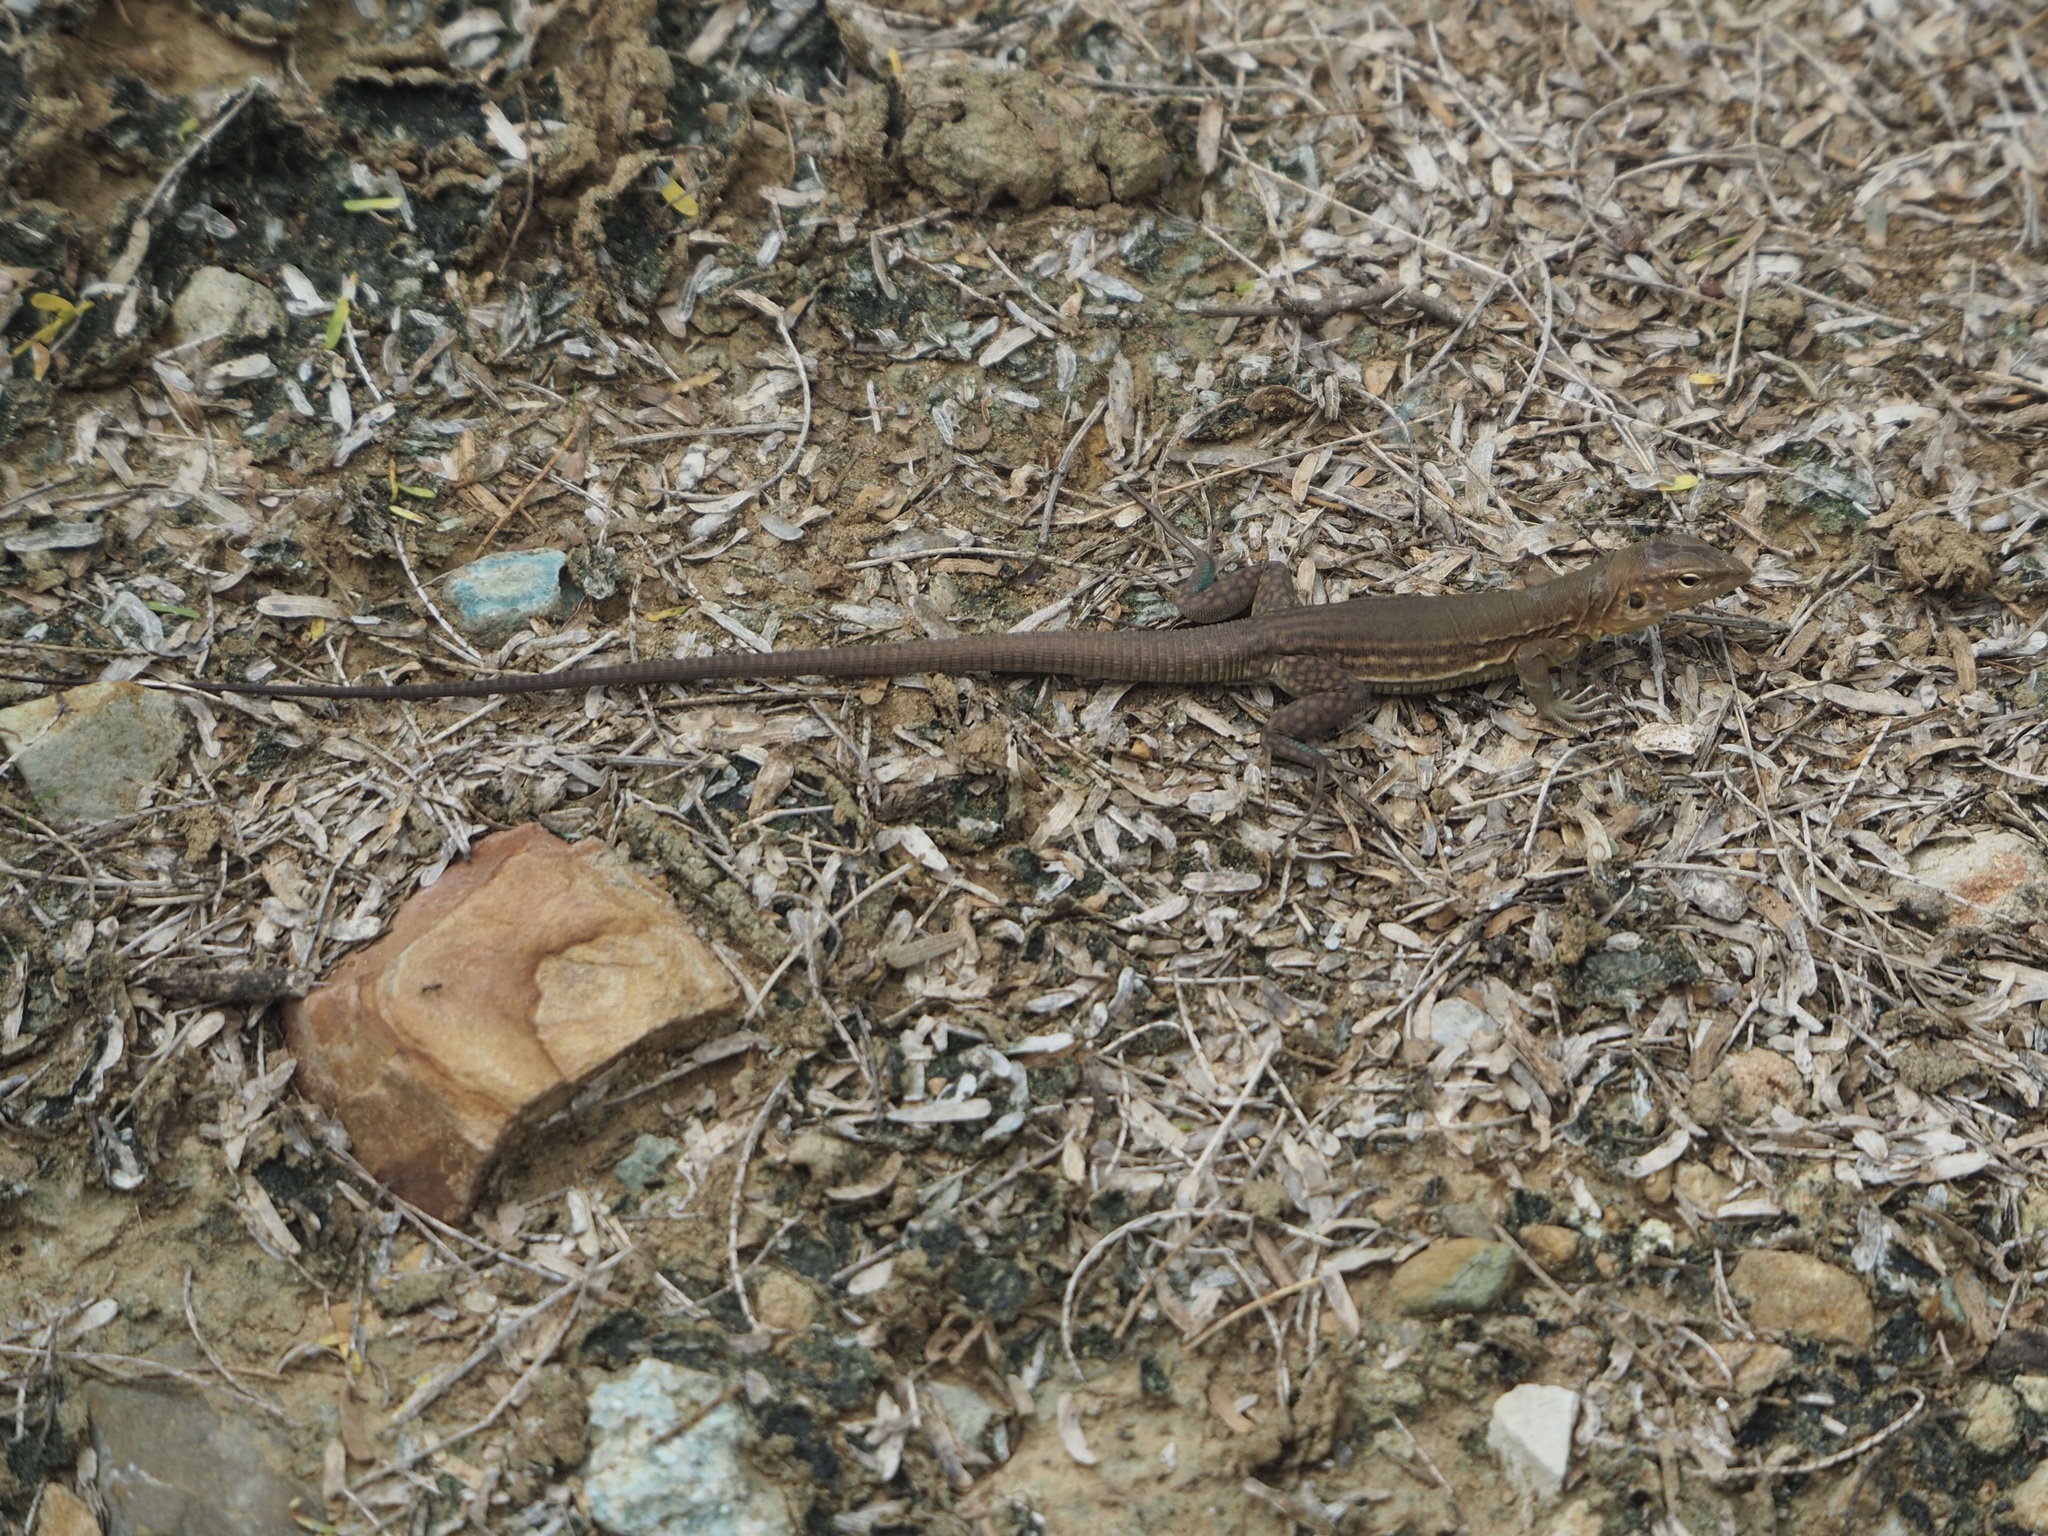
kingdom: Animalia
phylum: Chordata
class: Squamata
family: Teiidae
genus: Cnemidophorus
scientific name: Cnemidophorus ruthveni
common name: Bonaire whiptail
